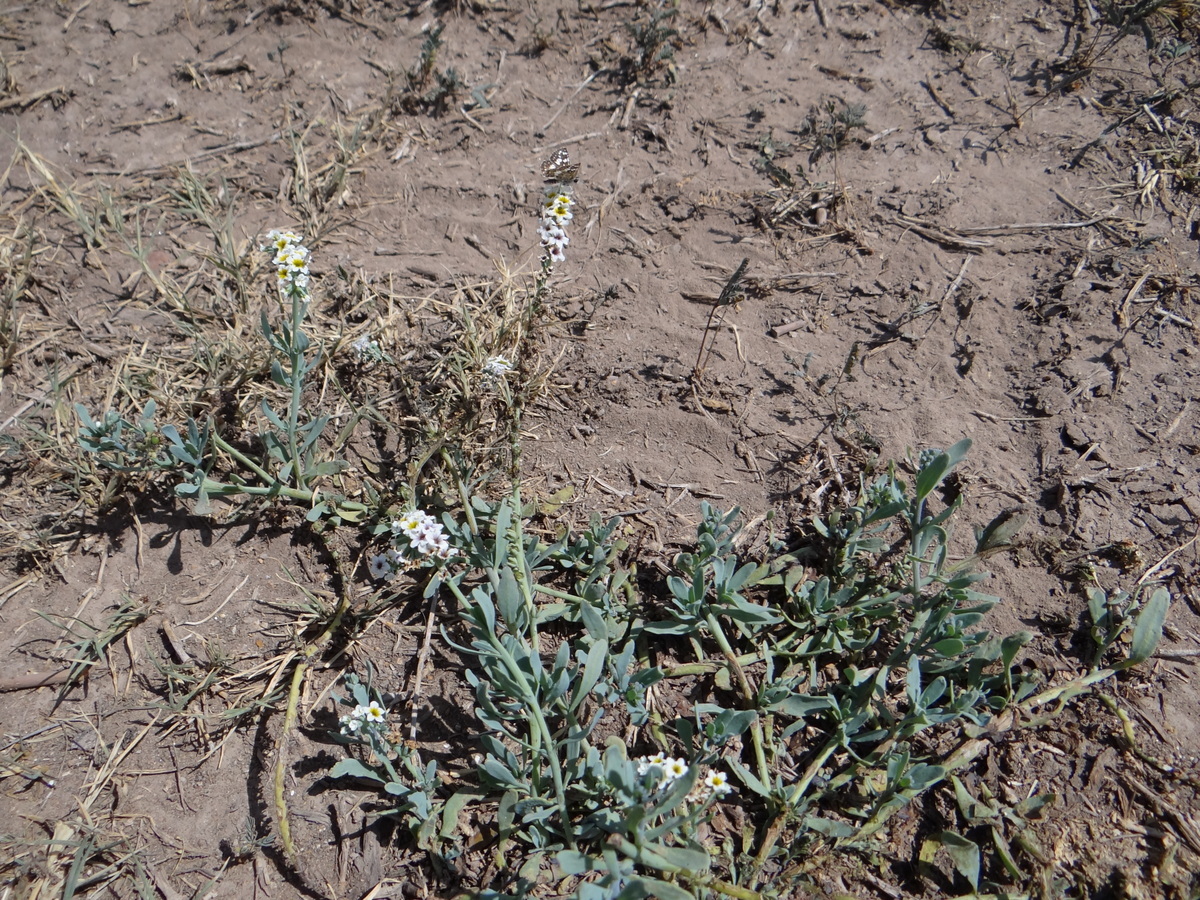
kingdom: Plantae
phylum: Tracheophyta
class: Magnoliopsida
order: Boraginales
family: Heliotropiaceae
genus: Heliotropium
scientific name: Heliotropium curassavicum
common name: Seaside heliotrope
